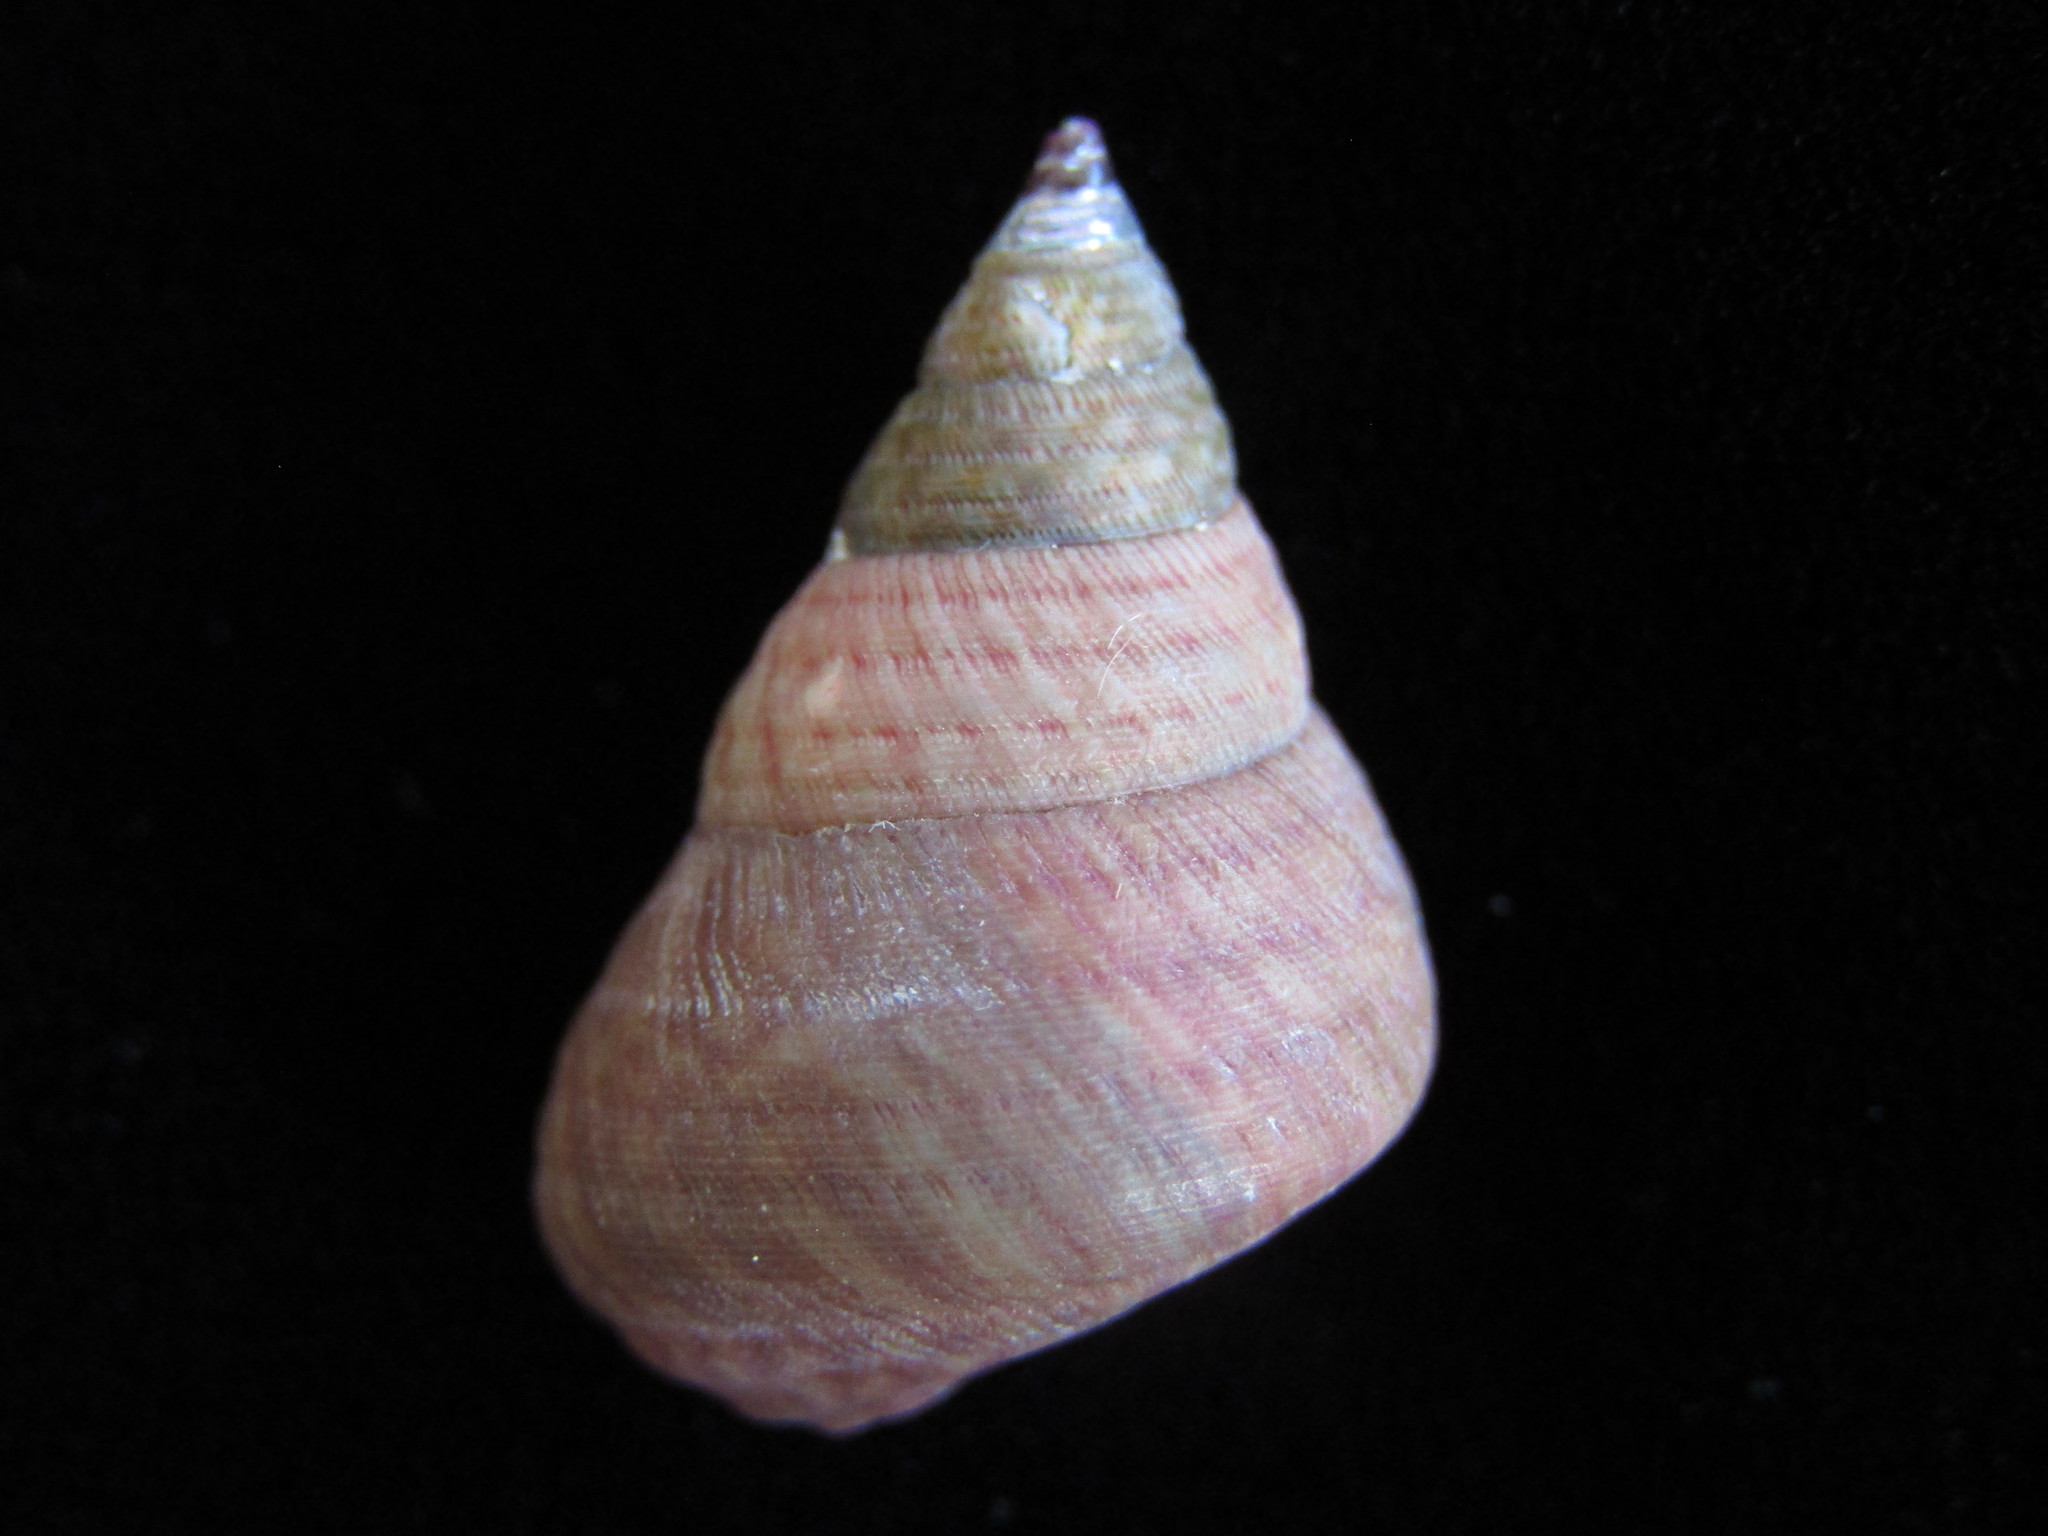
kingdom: Animalia
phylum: Mollusca
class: Gastropoda
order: Trochida
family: Trochidae
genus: Micrelenchus
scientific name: Micrelenchus purpureus
